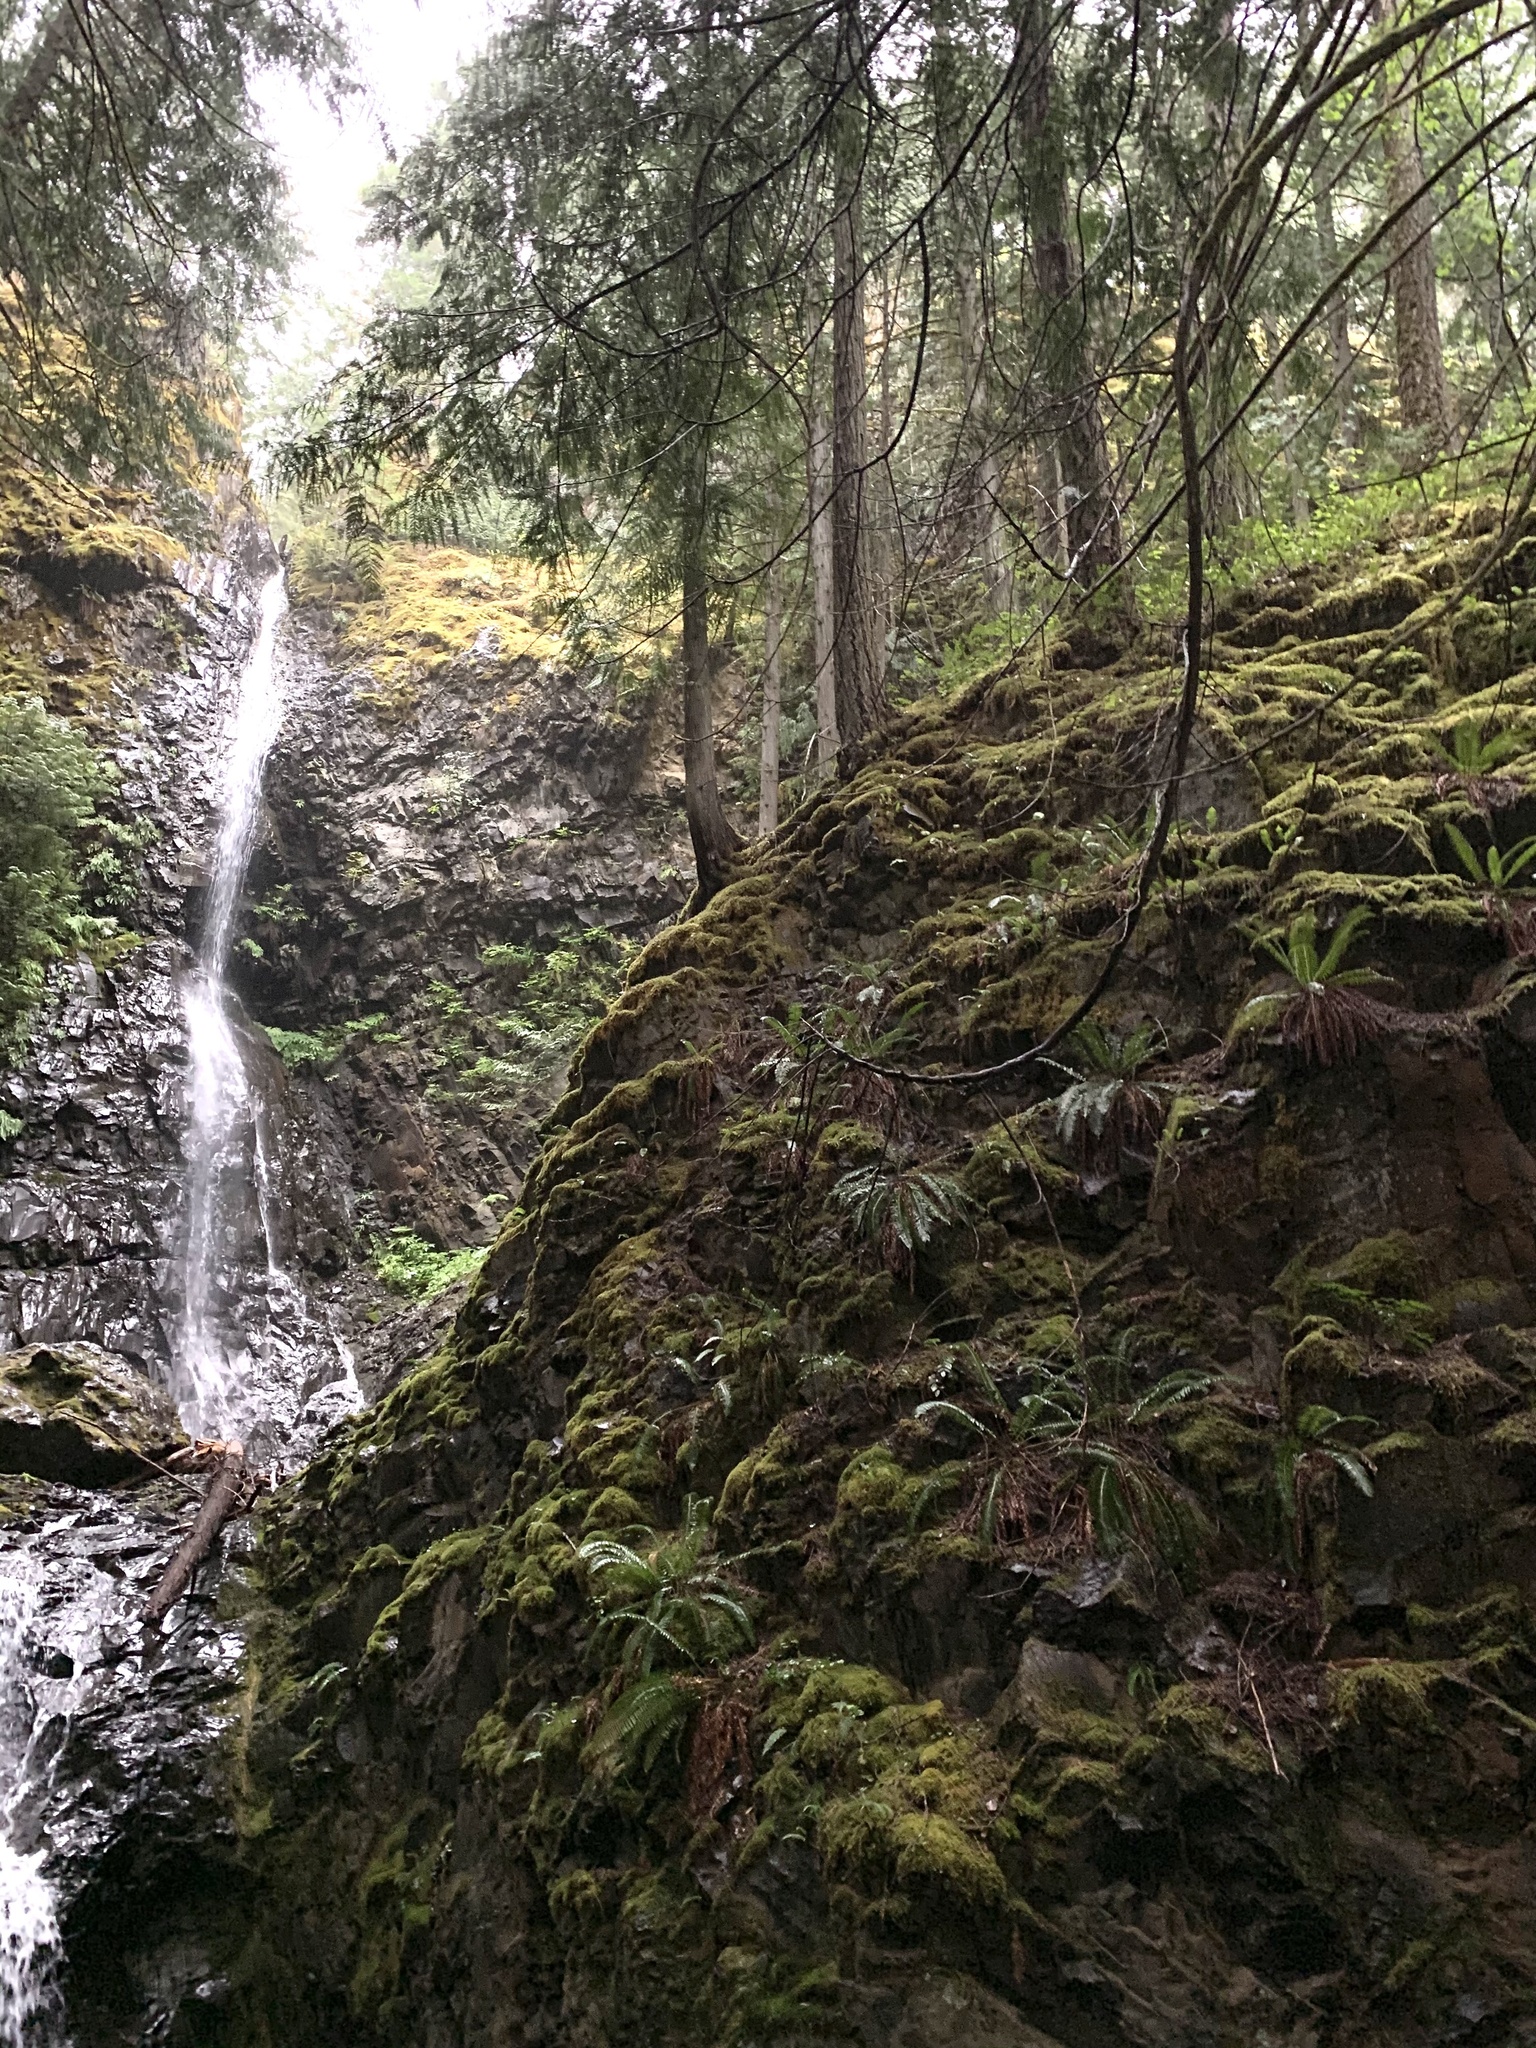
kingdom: Plantae
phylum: Tracheophyta
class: Polypodiopsida
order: Polypodiales
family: Dryopteridaceae
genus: Polystichum
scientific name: Polystichum munitum
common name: Western sword-fern
